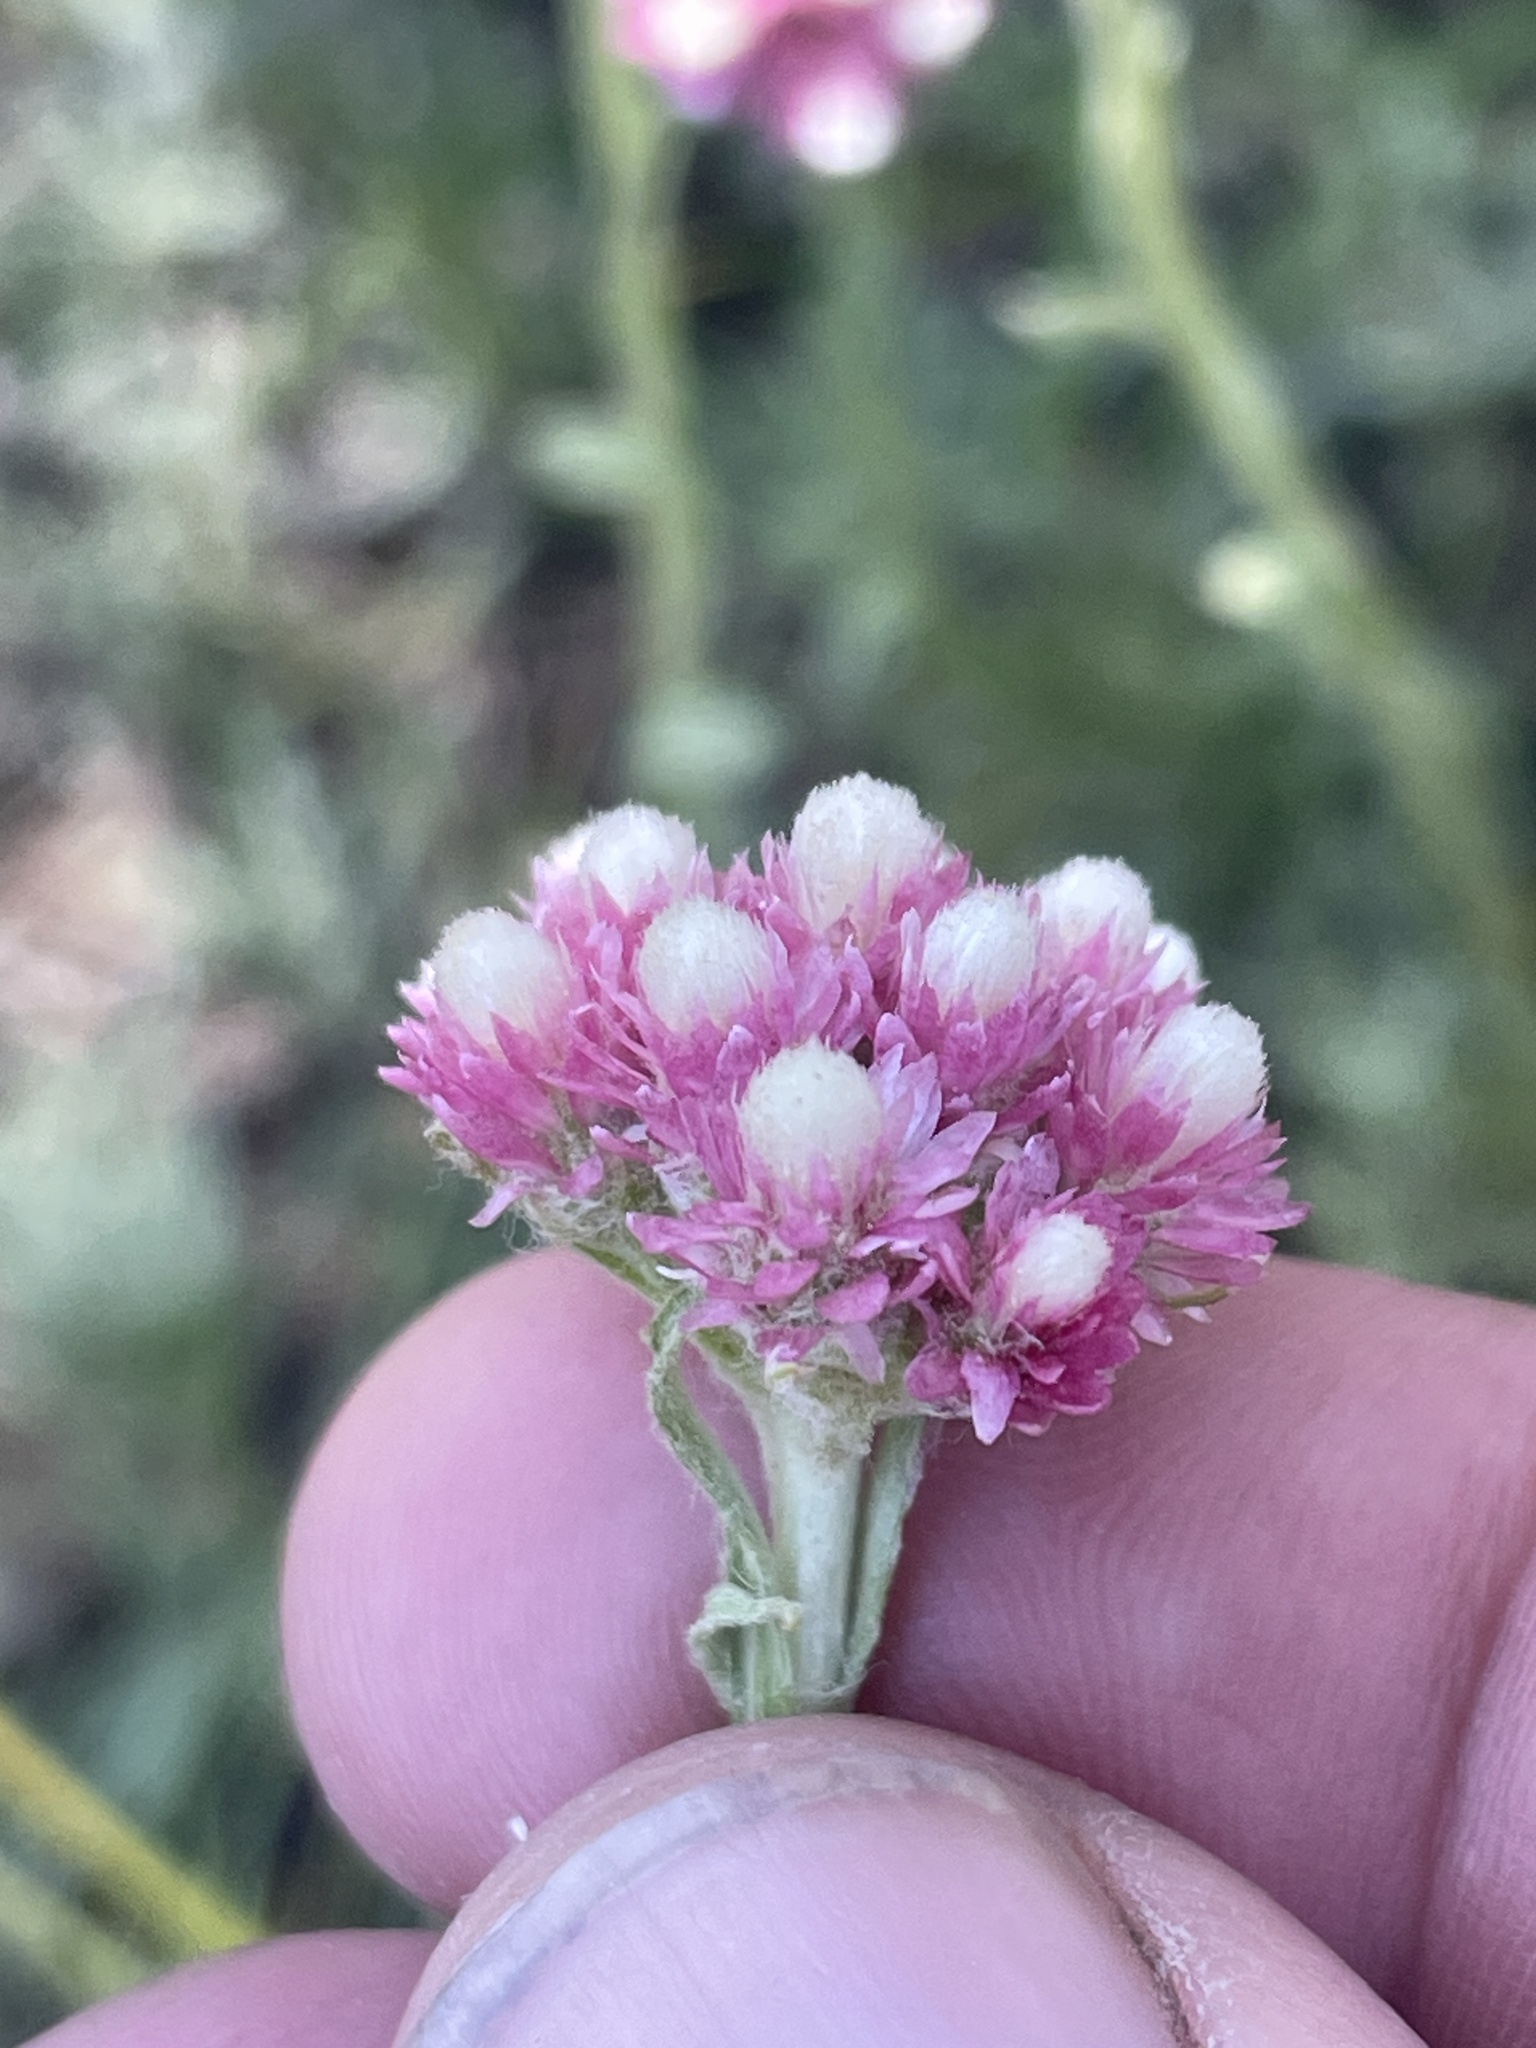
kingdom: Plantae
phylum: Tracheophyta
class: Magnoliopsida
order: Asterales
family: Asteraceae
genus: Antennaria
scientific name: Antennaria rosea
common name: Rosy pussytoes
